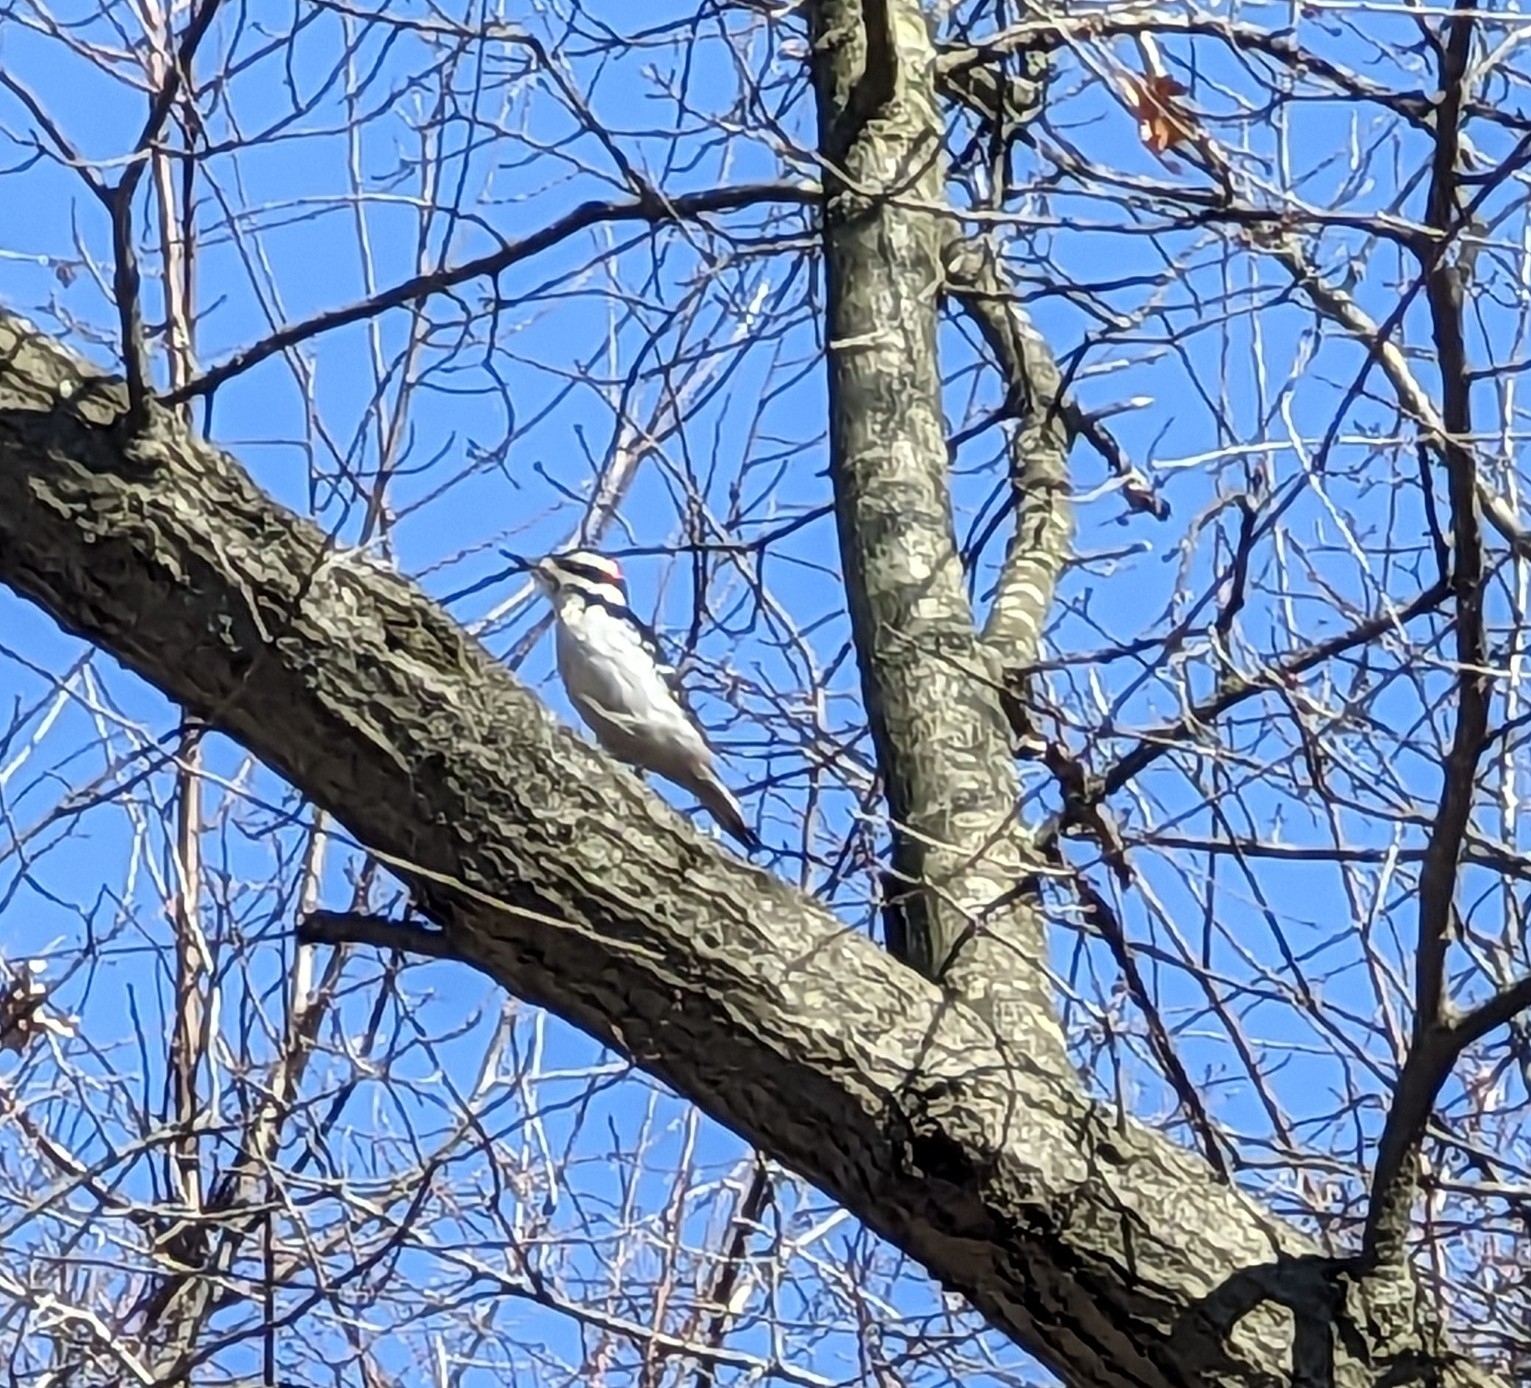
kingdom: Animalia
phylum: Chordata
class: Aves
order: Piciformes
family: Picidae
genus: Leuconotopicus
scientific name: Leuconotopicus villosus
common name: Hairy woodpecker
